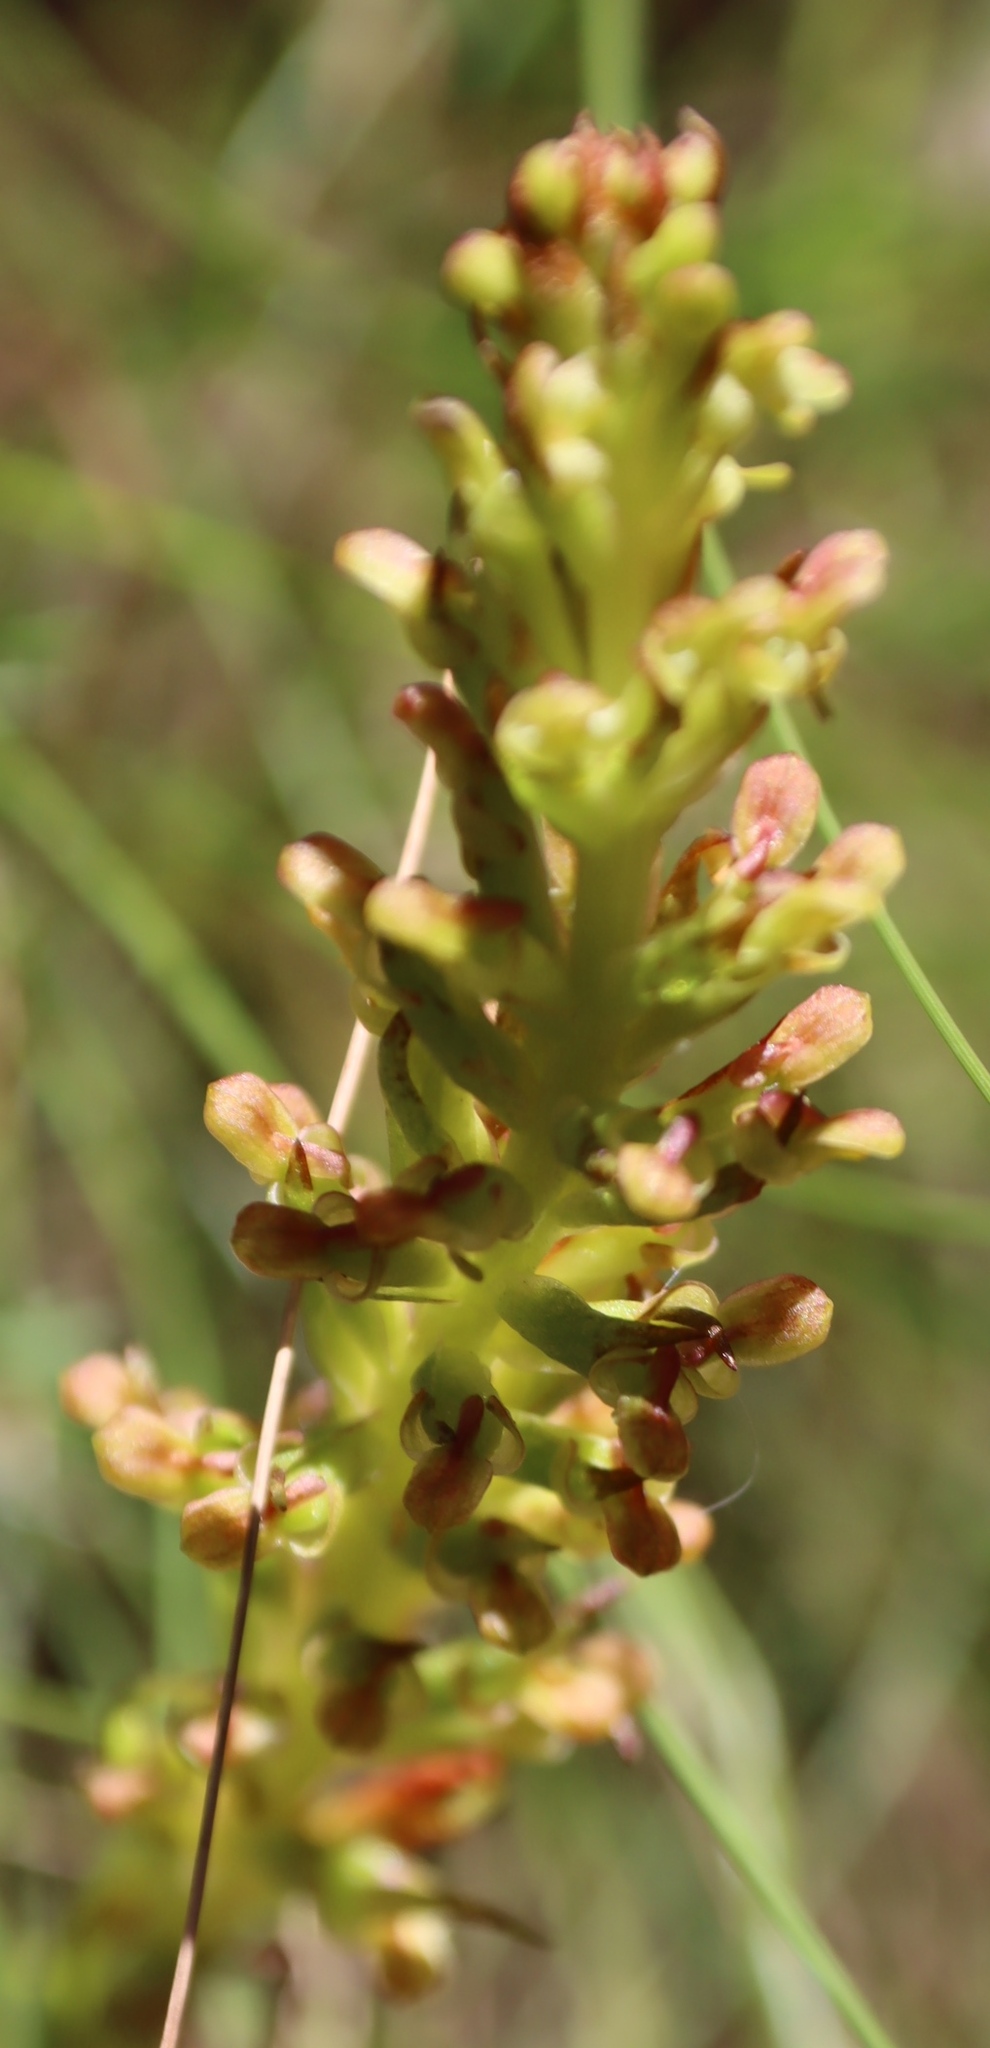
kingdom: Plantae
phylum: Tracheophyta
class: Liliopsida
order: Asparagales
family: Orchidaceae
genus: Disa
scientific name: Disa densiflora
